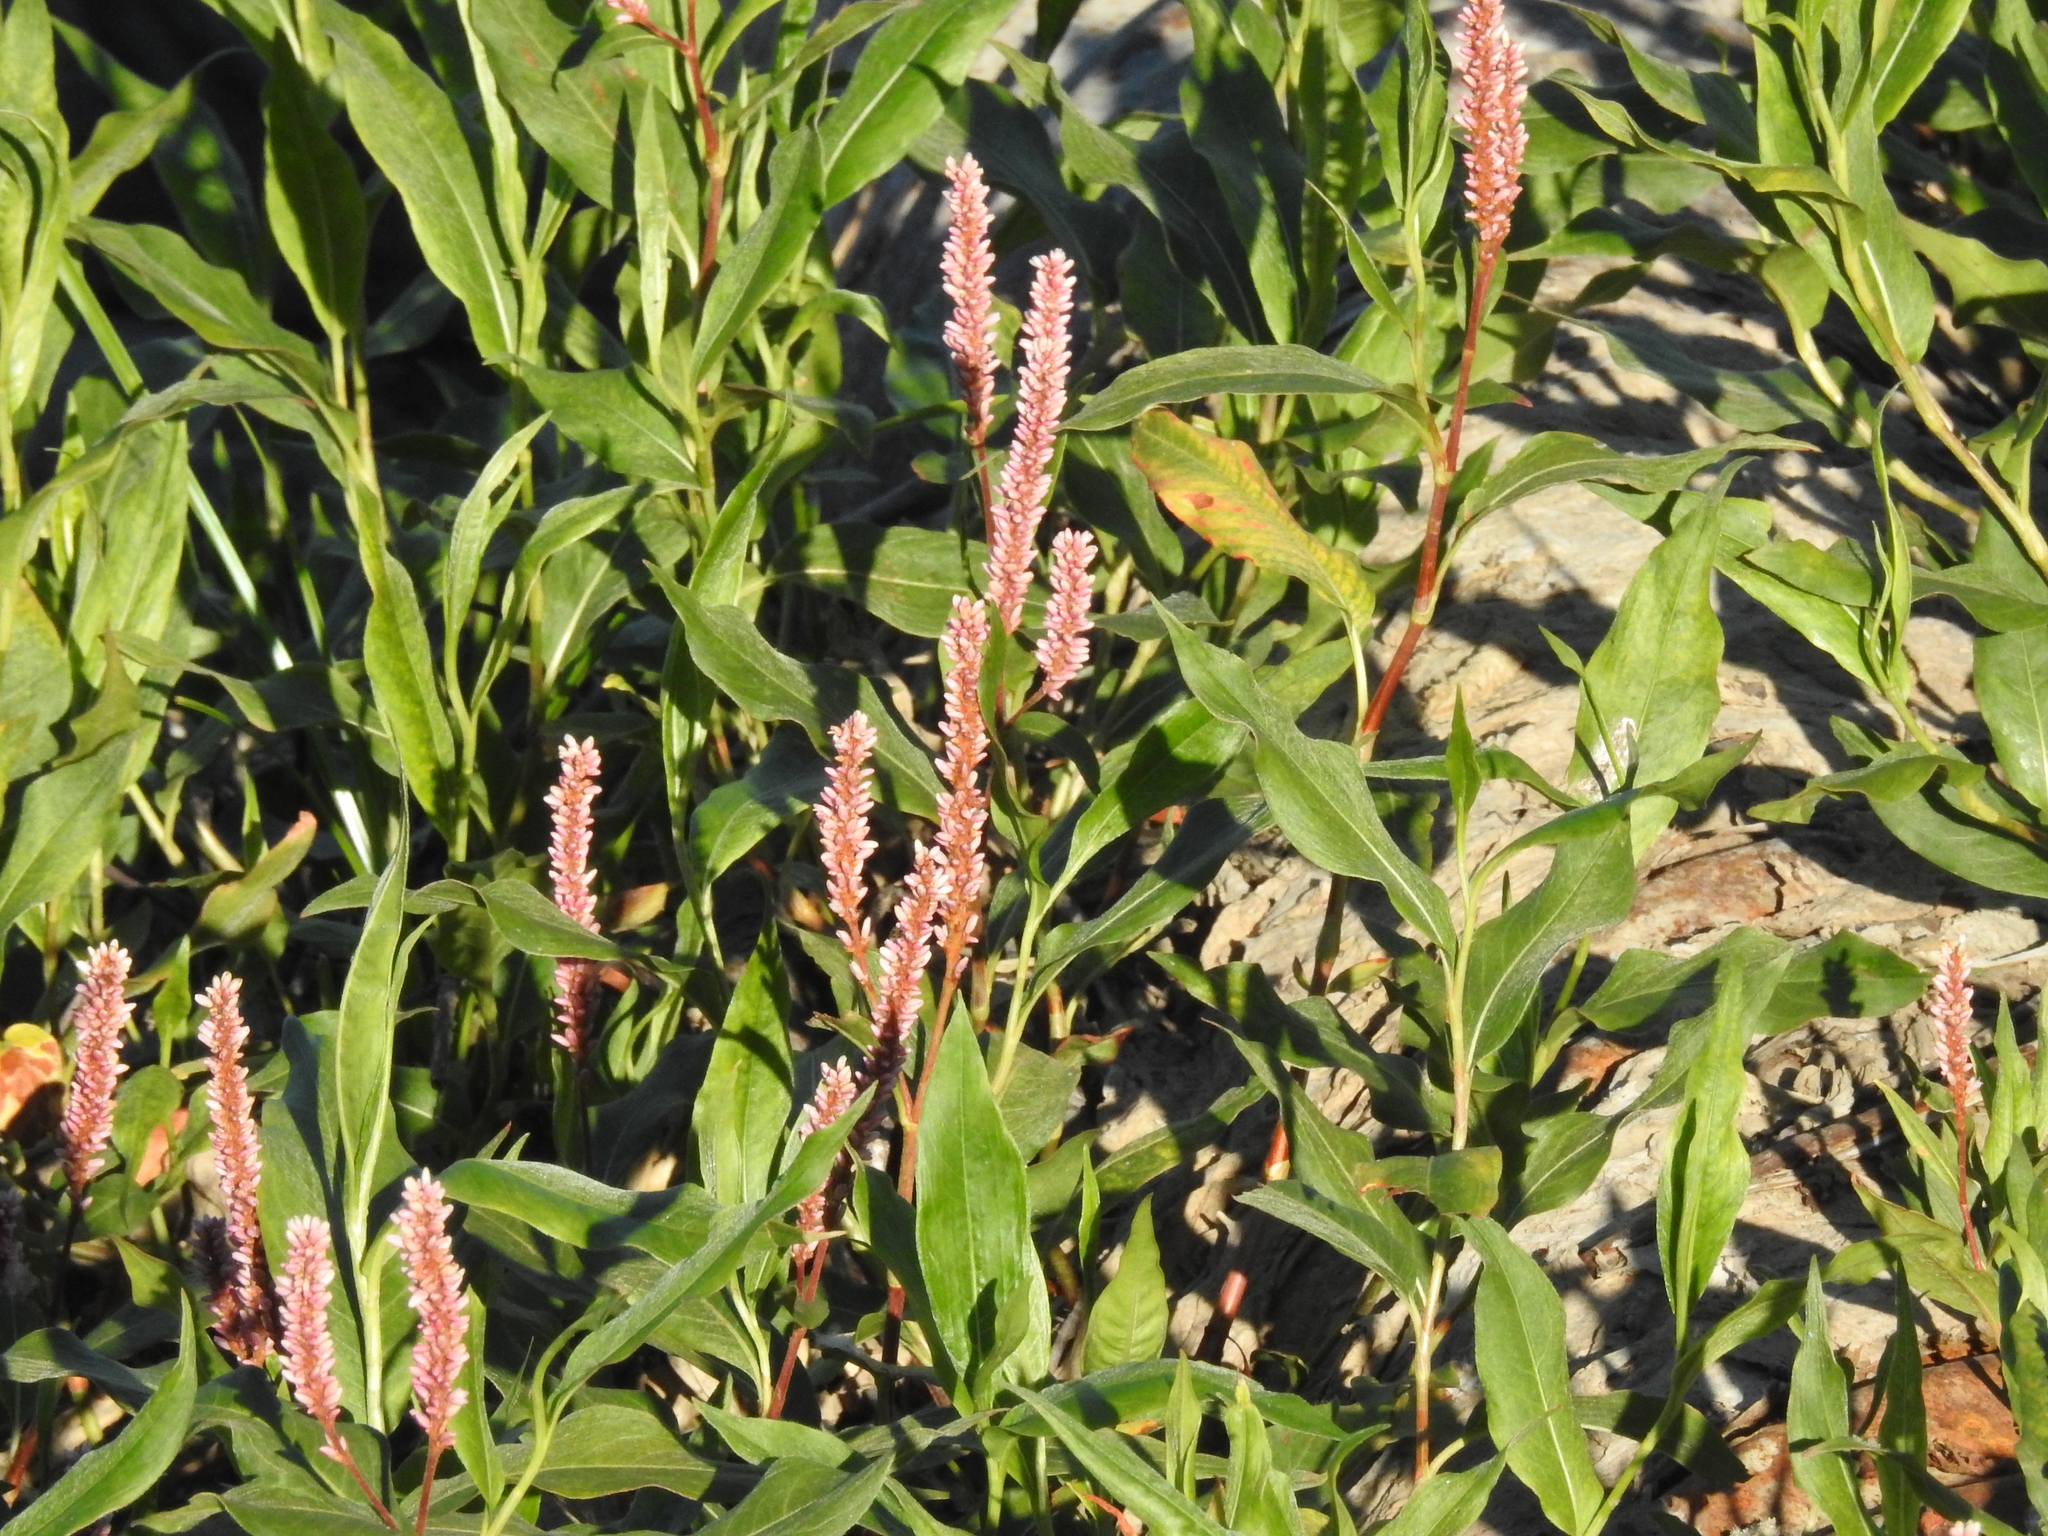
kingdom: Plantae
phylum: Tracheophyta
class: Magnoliopsida
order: Caryophyllales
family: Polygonaceae
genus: Persicaria
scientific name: Persicaria amphibia
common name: Amphibious bistort
